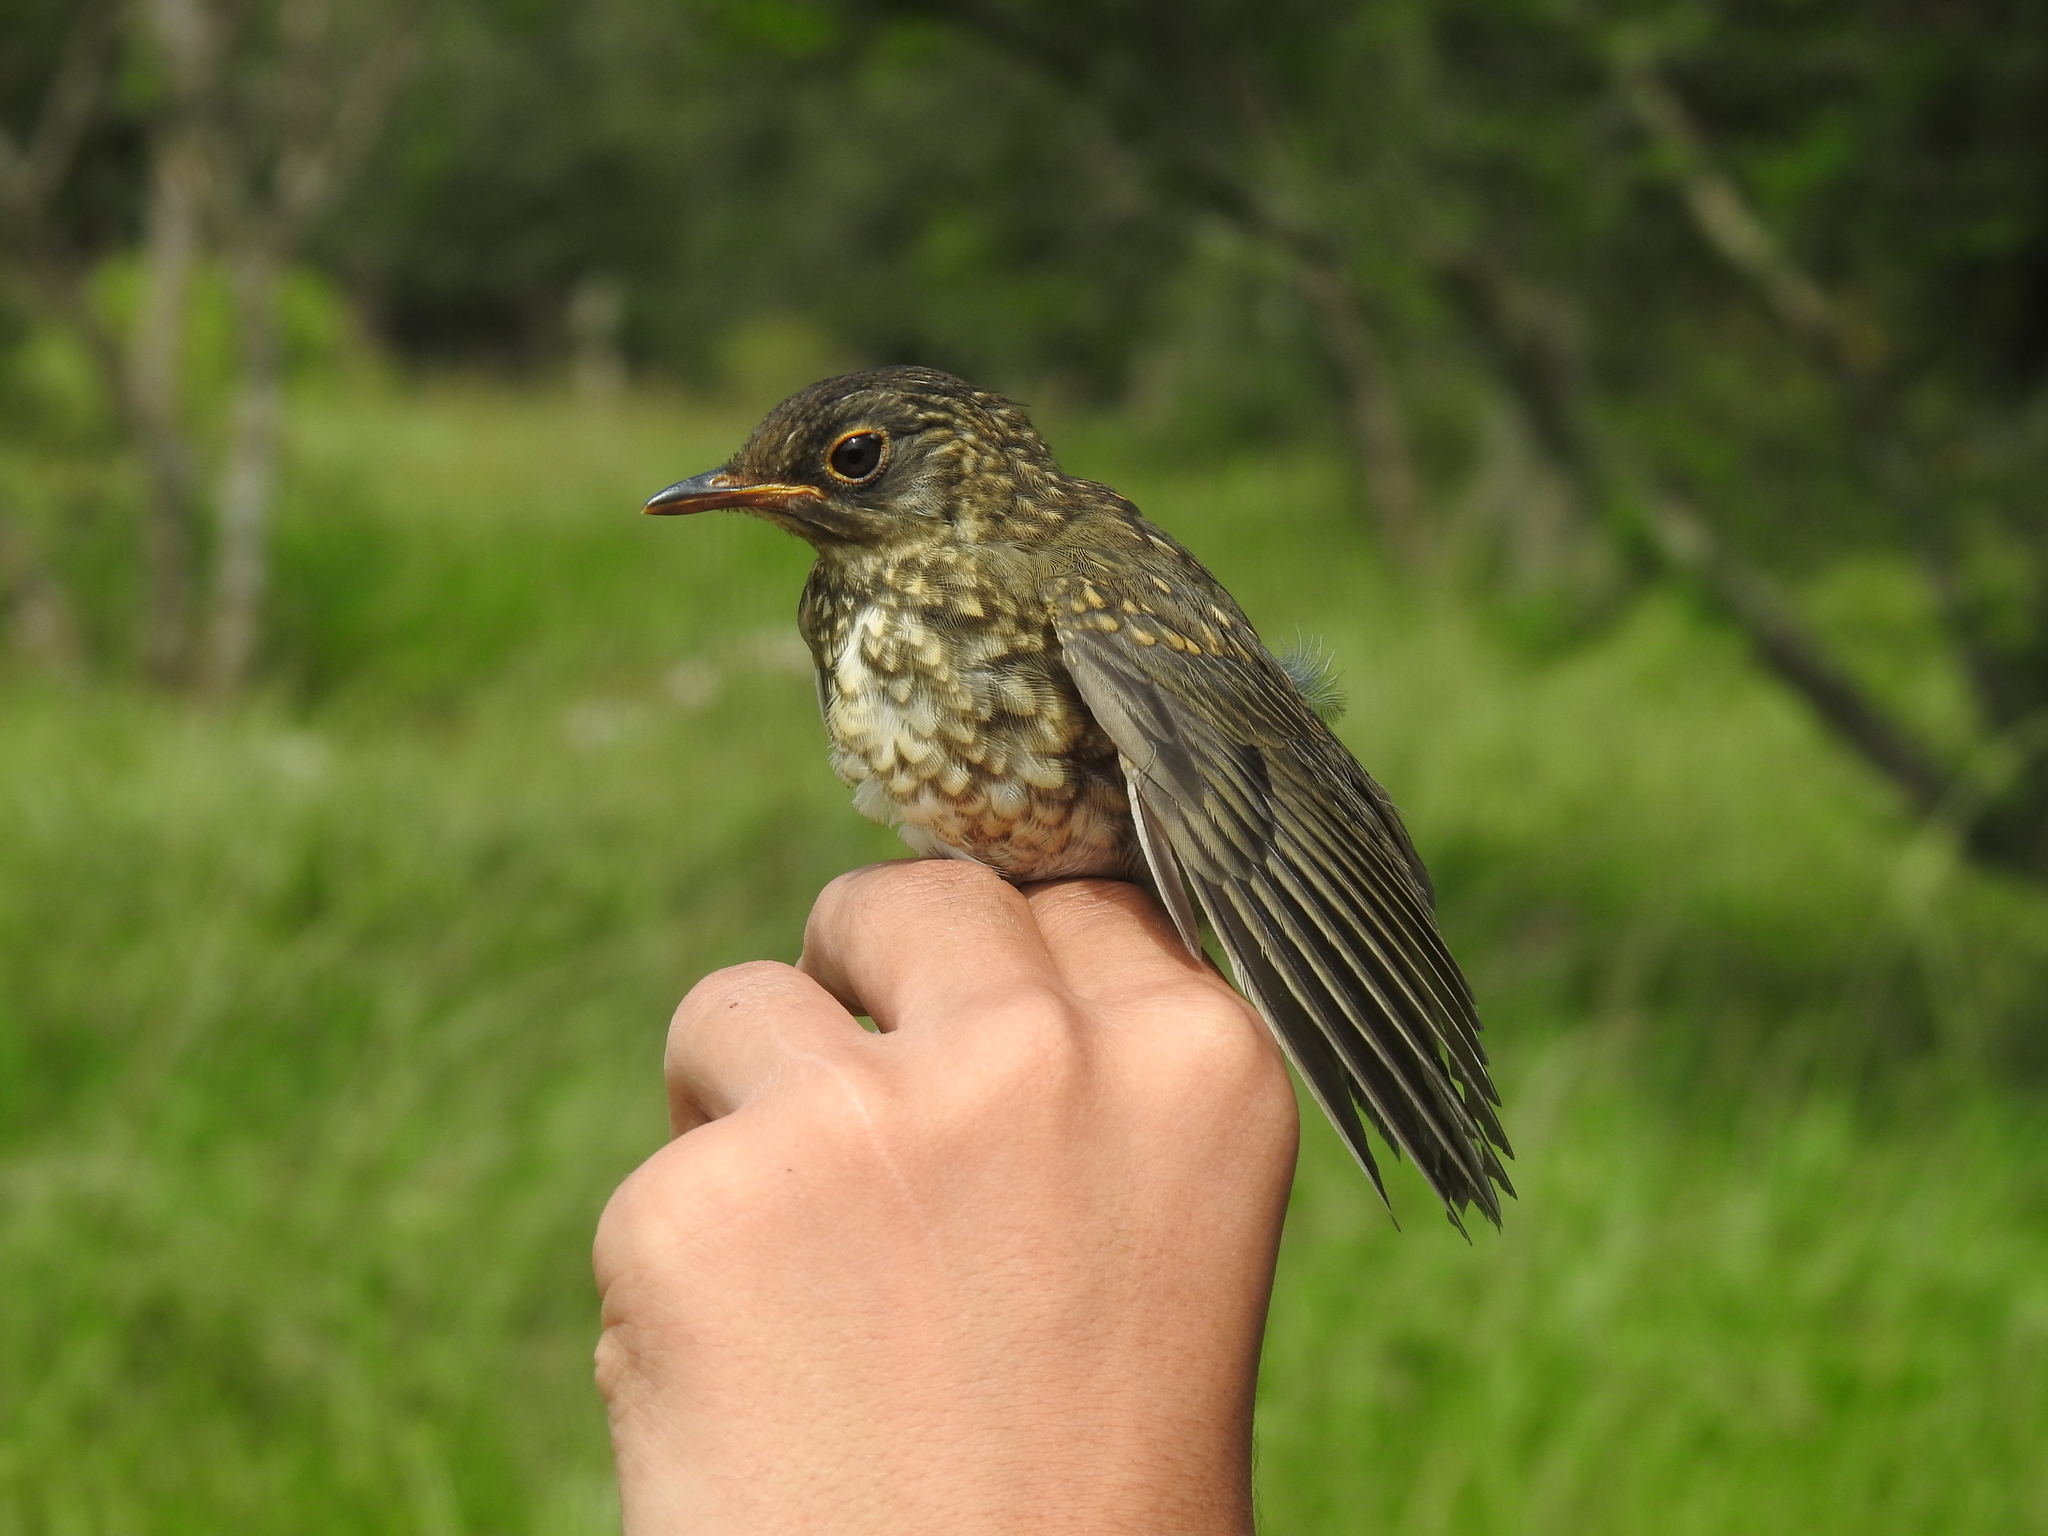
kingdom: Animalia
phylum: Chordata
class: Aves
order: Passeriformes
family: Turdidae
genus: Turdus
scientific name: Turdus assimilis
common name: White-throated thrush
